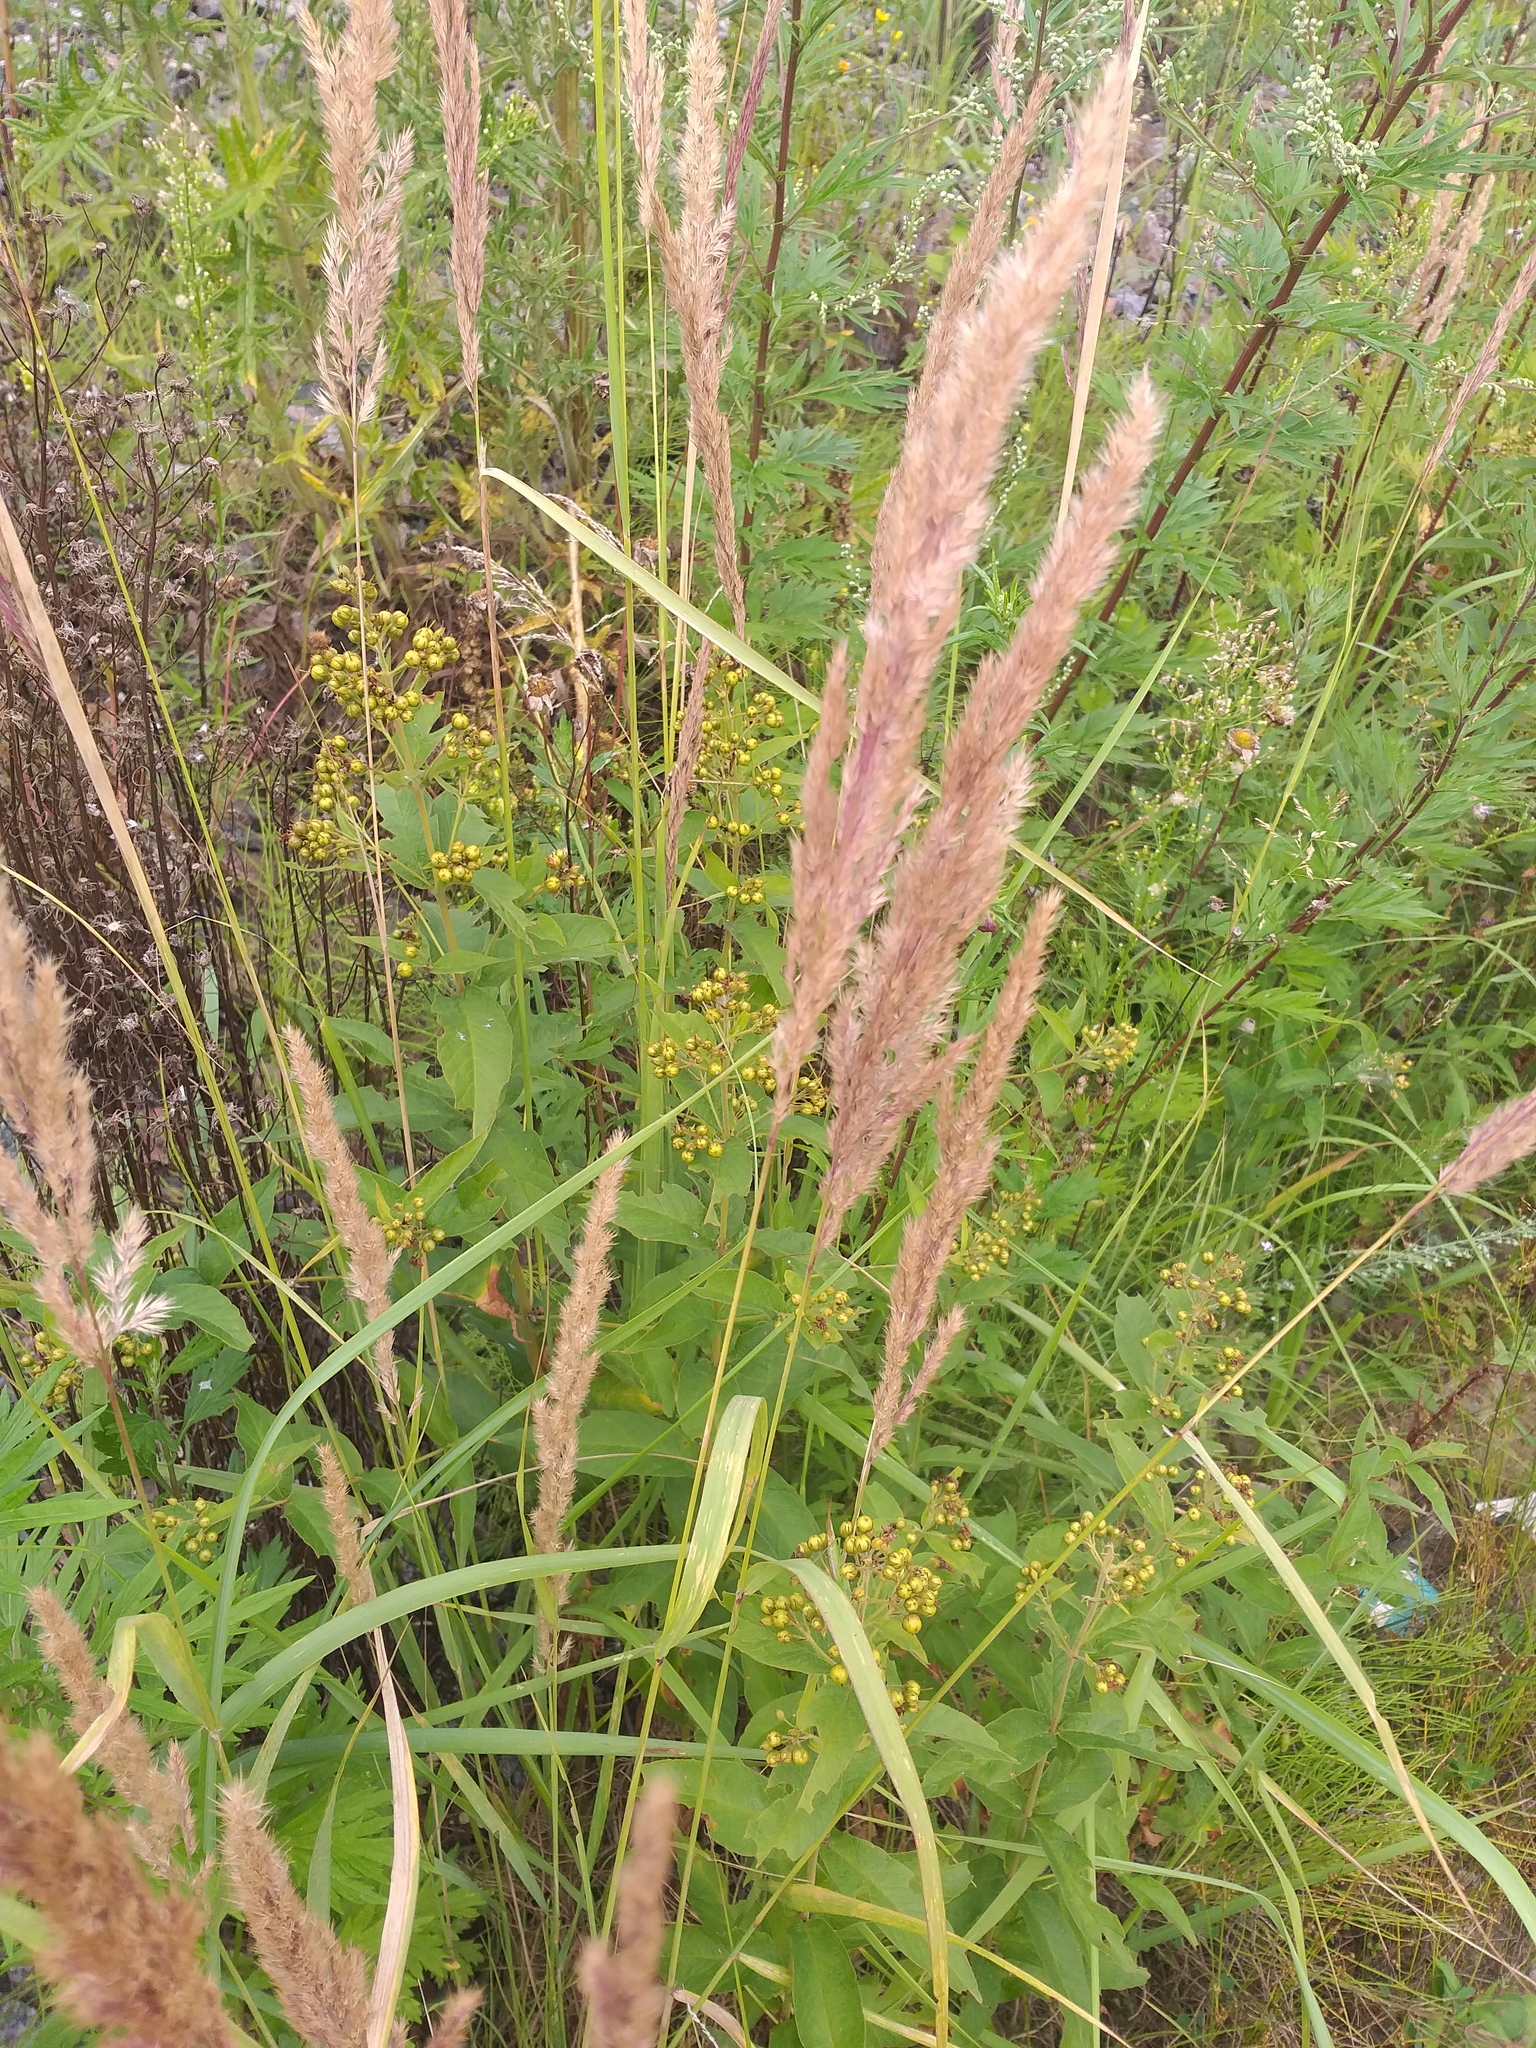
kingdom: Plantae
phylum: Tracheophyta
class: Magnoliopsida
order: Ericales
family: Primulaceae
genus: Lysimachia
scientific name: Lysimachia vulgaris
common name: Yellow loosestrife
